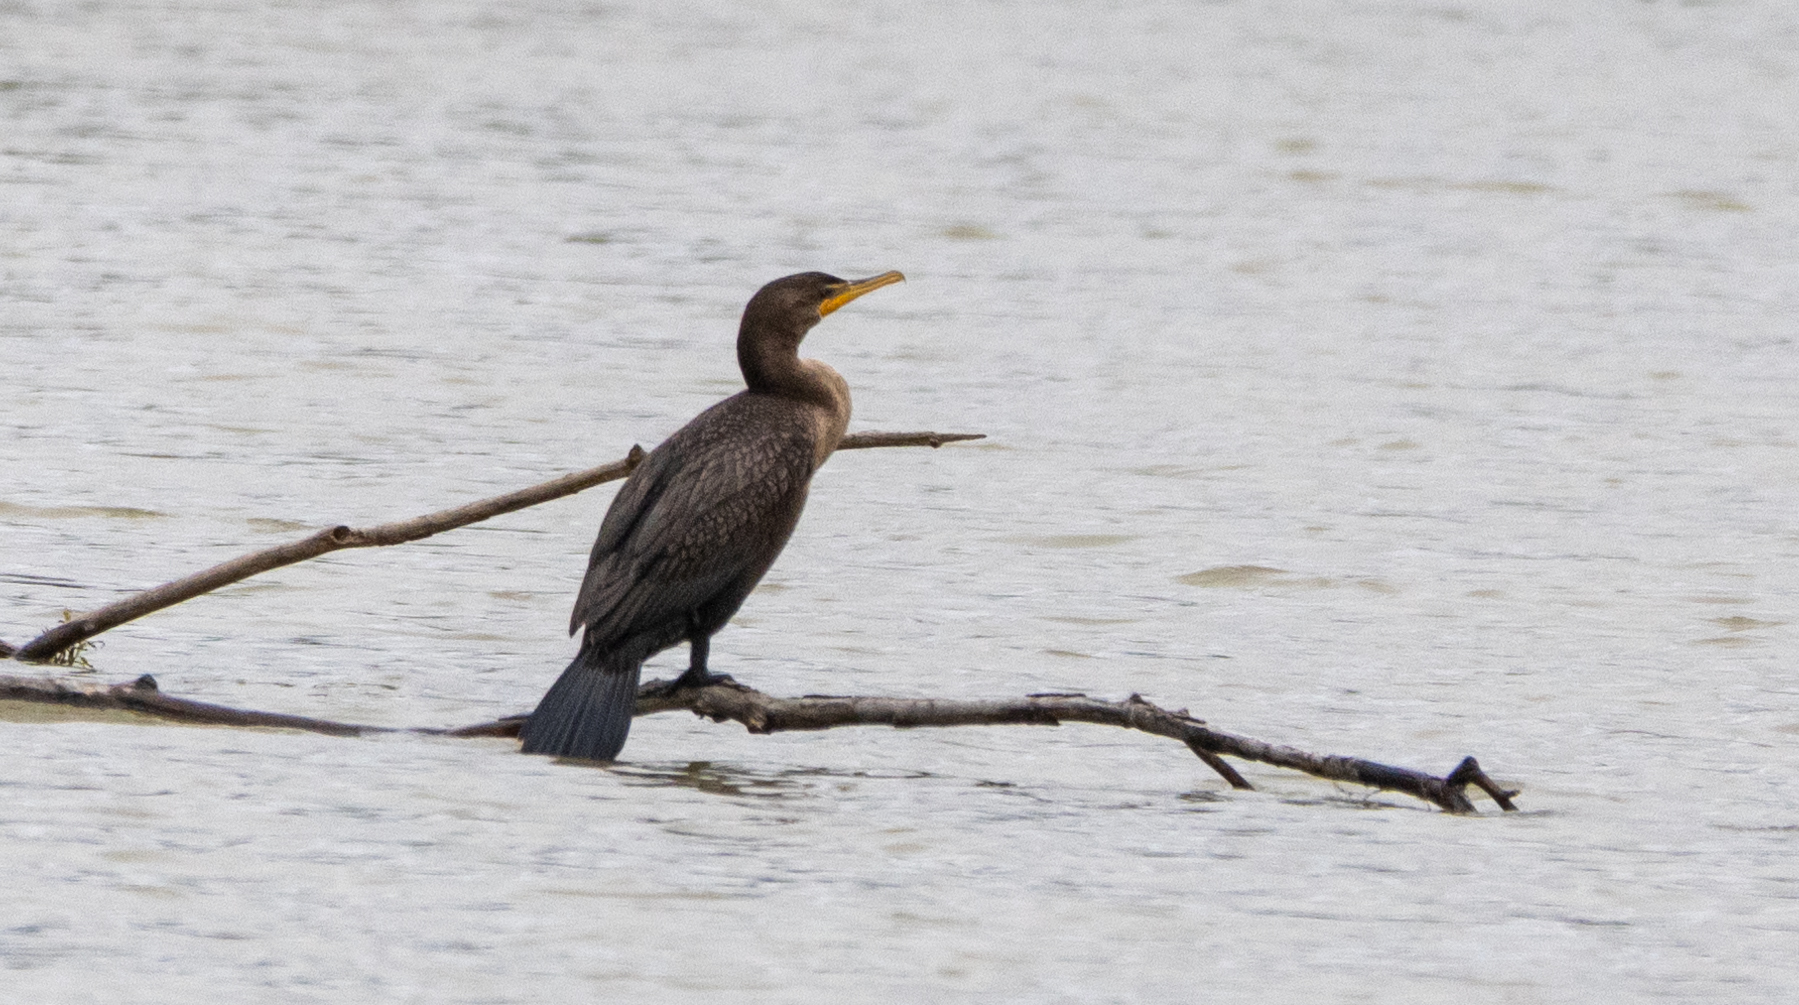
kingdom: Animalia
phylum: Chordata
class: Aves
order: Suliformes
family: Phalacrocoracidae
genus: Phalacrocorax
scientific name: Phalacrocorax auritus
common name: Double-crested cormorant
